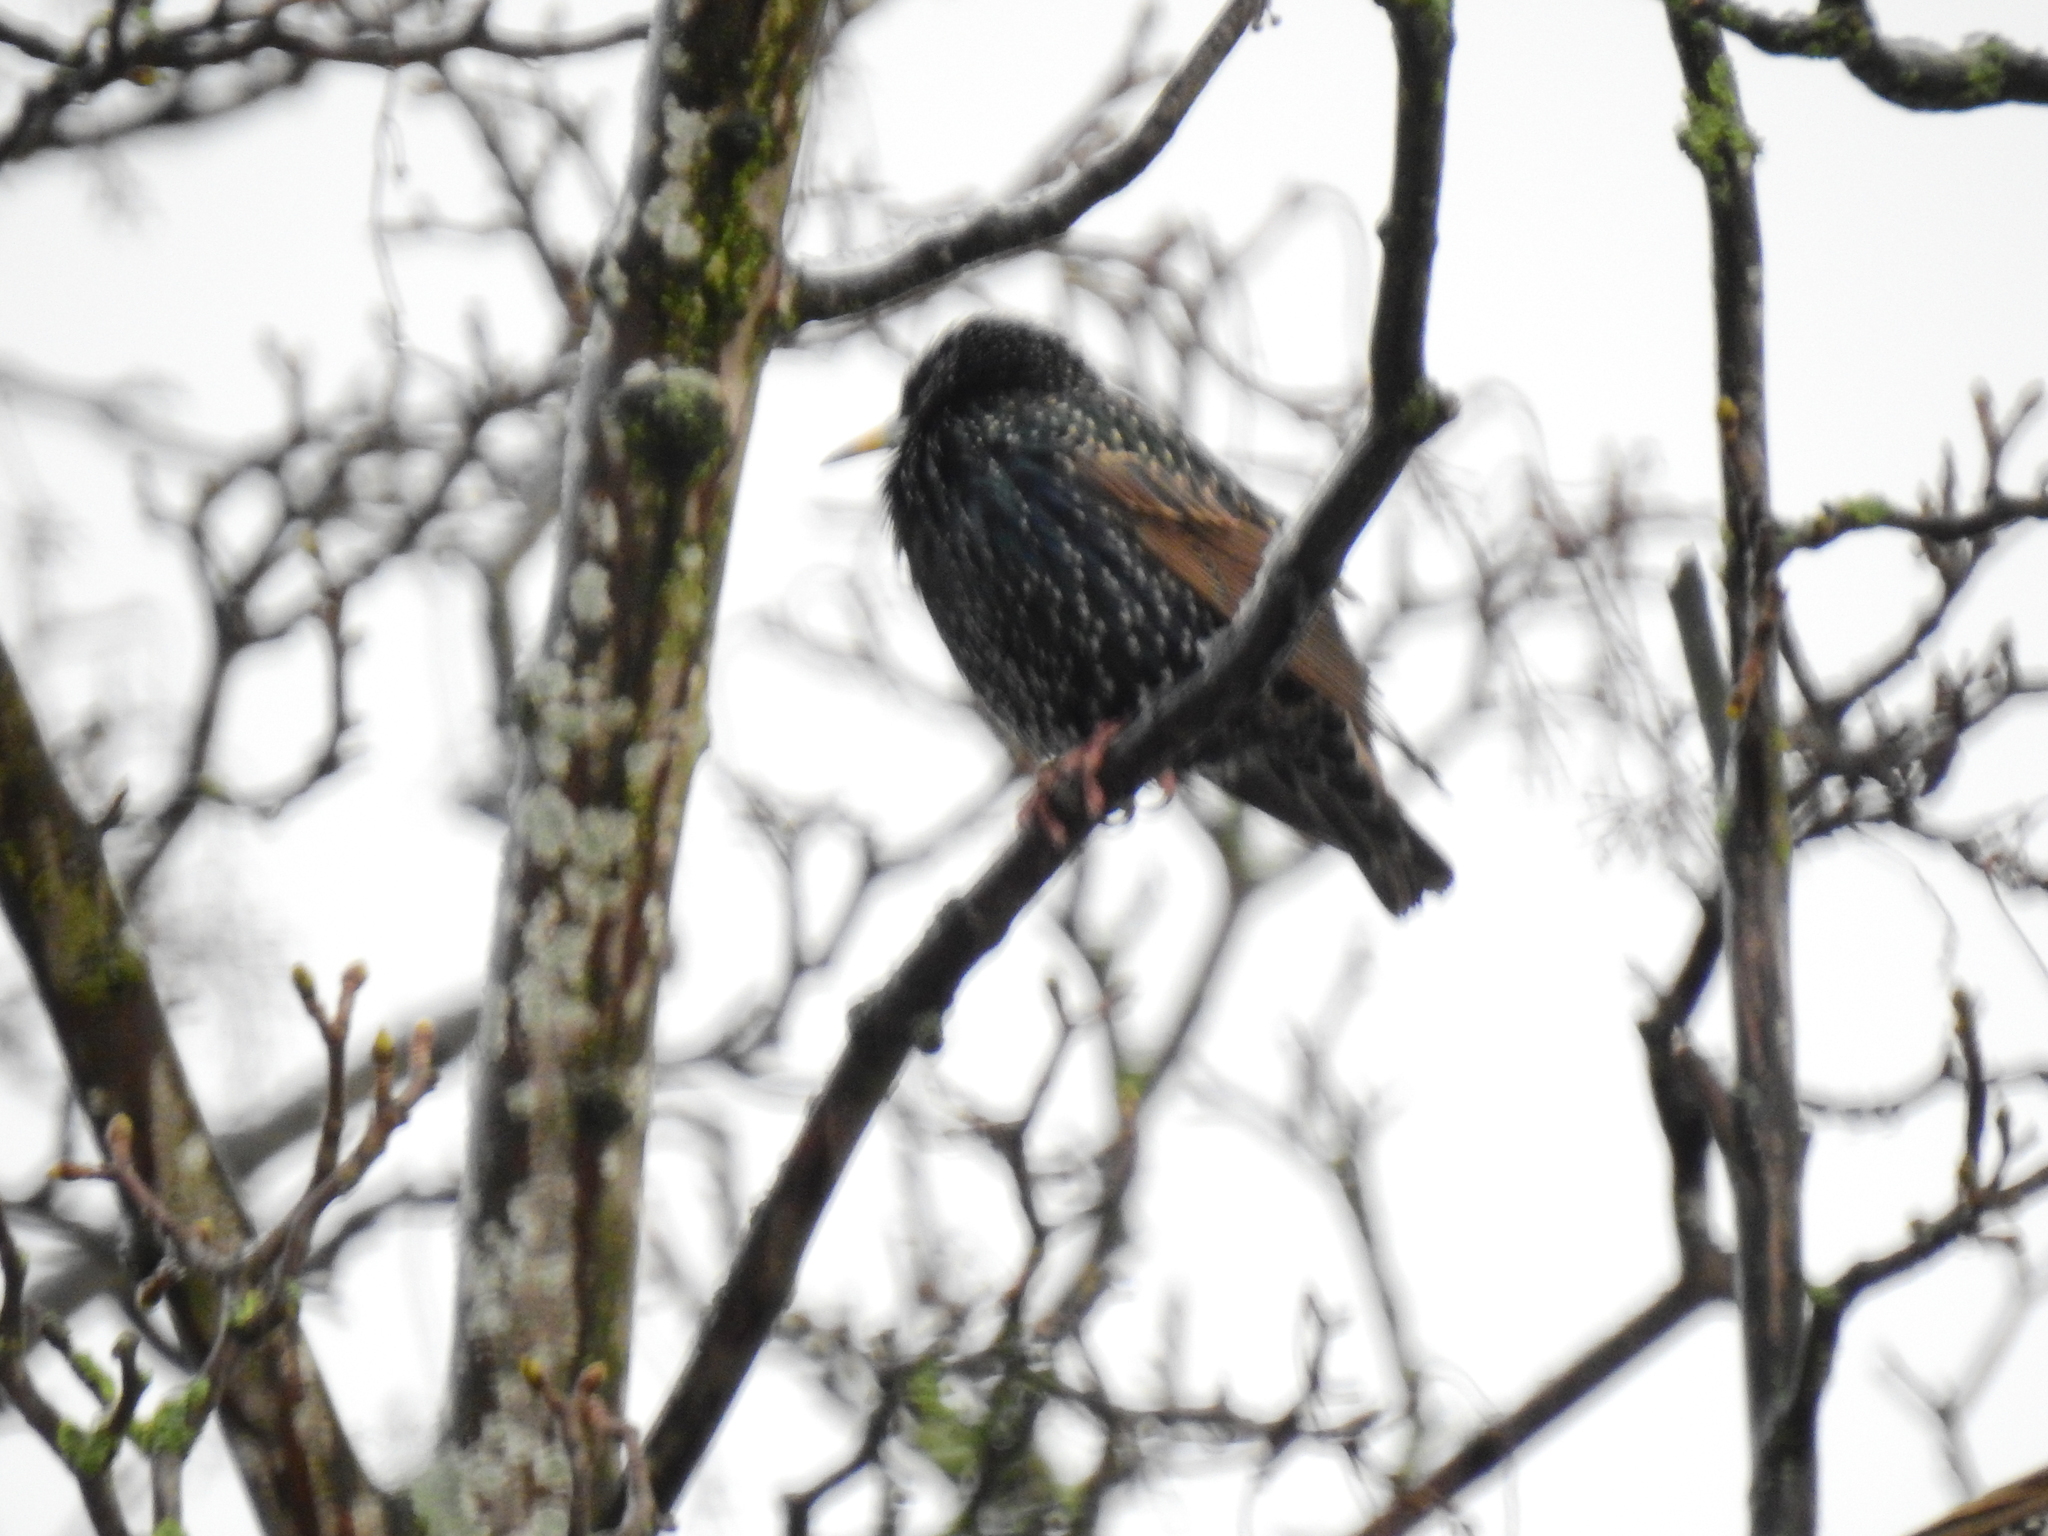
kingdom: Animalia
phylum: Chordata
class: Aves
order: Passeriformes
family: Sturnidae
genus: Sturnus
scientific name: Sturnus vulgaris
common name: Common starling
